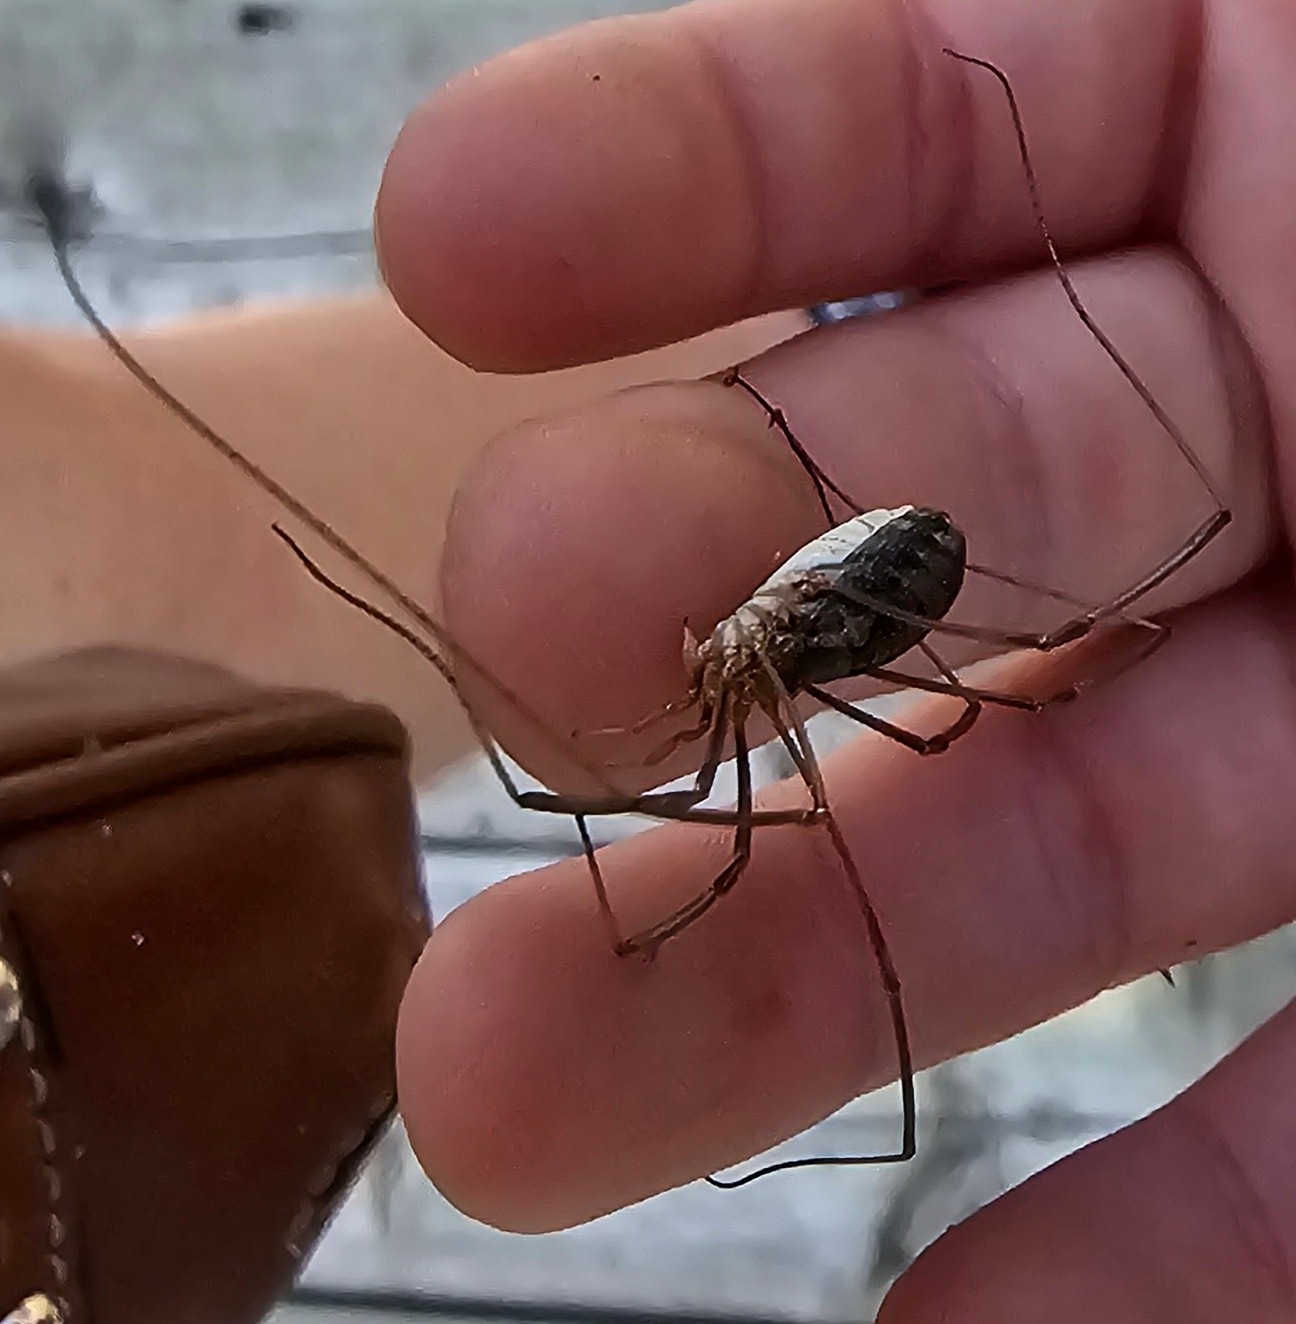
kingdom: Animalia
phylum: Arthropoda
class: Arachnida
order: Opiliones
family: Phalangiidae
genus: Phalangium
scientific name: Phalangium opilio
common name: Daddy longleg
